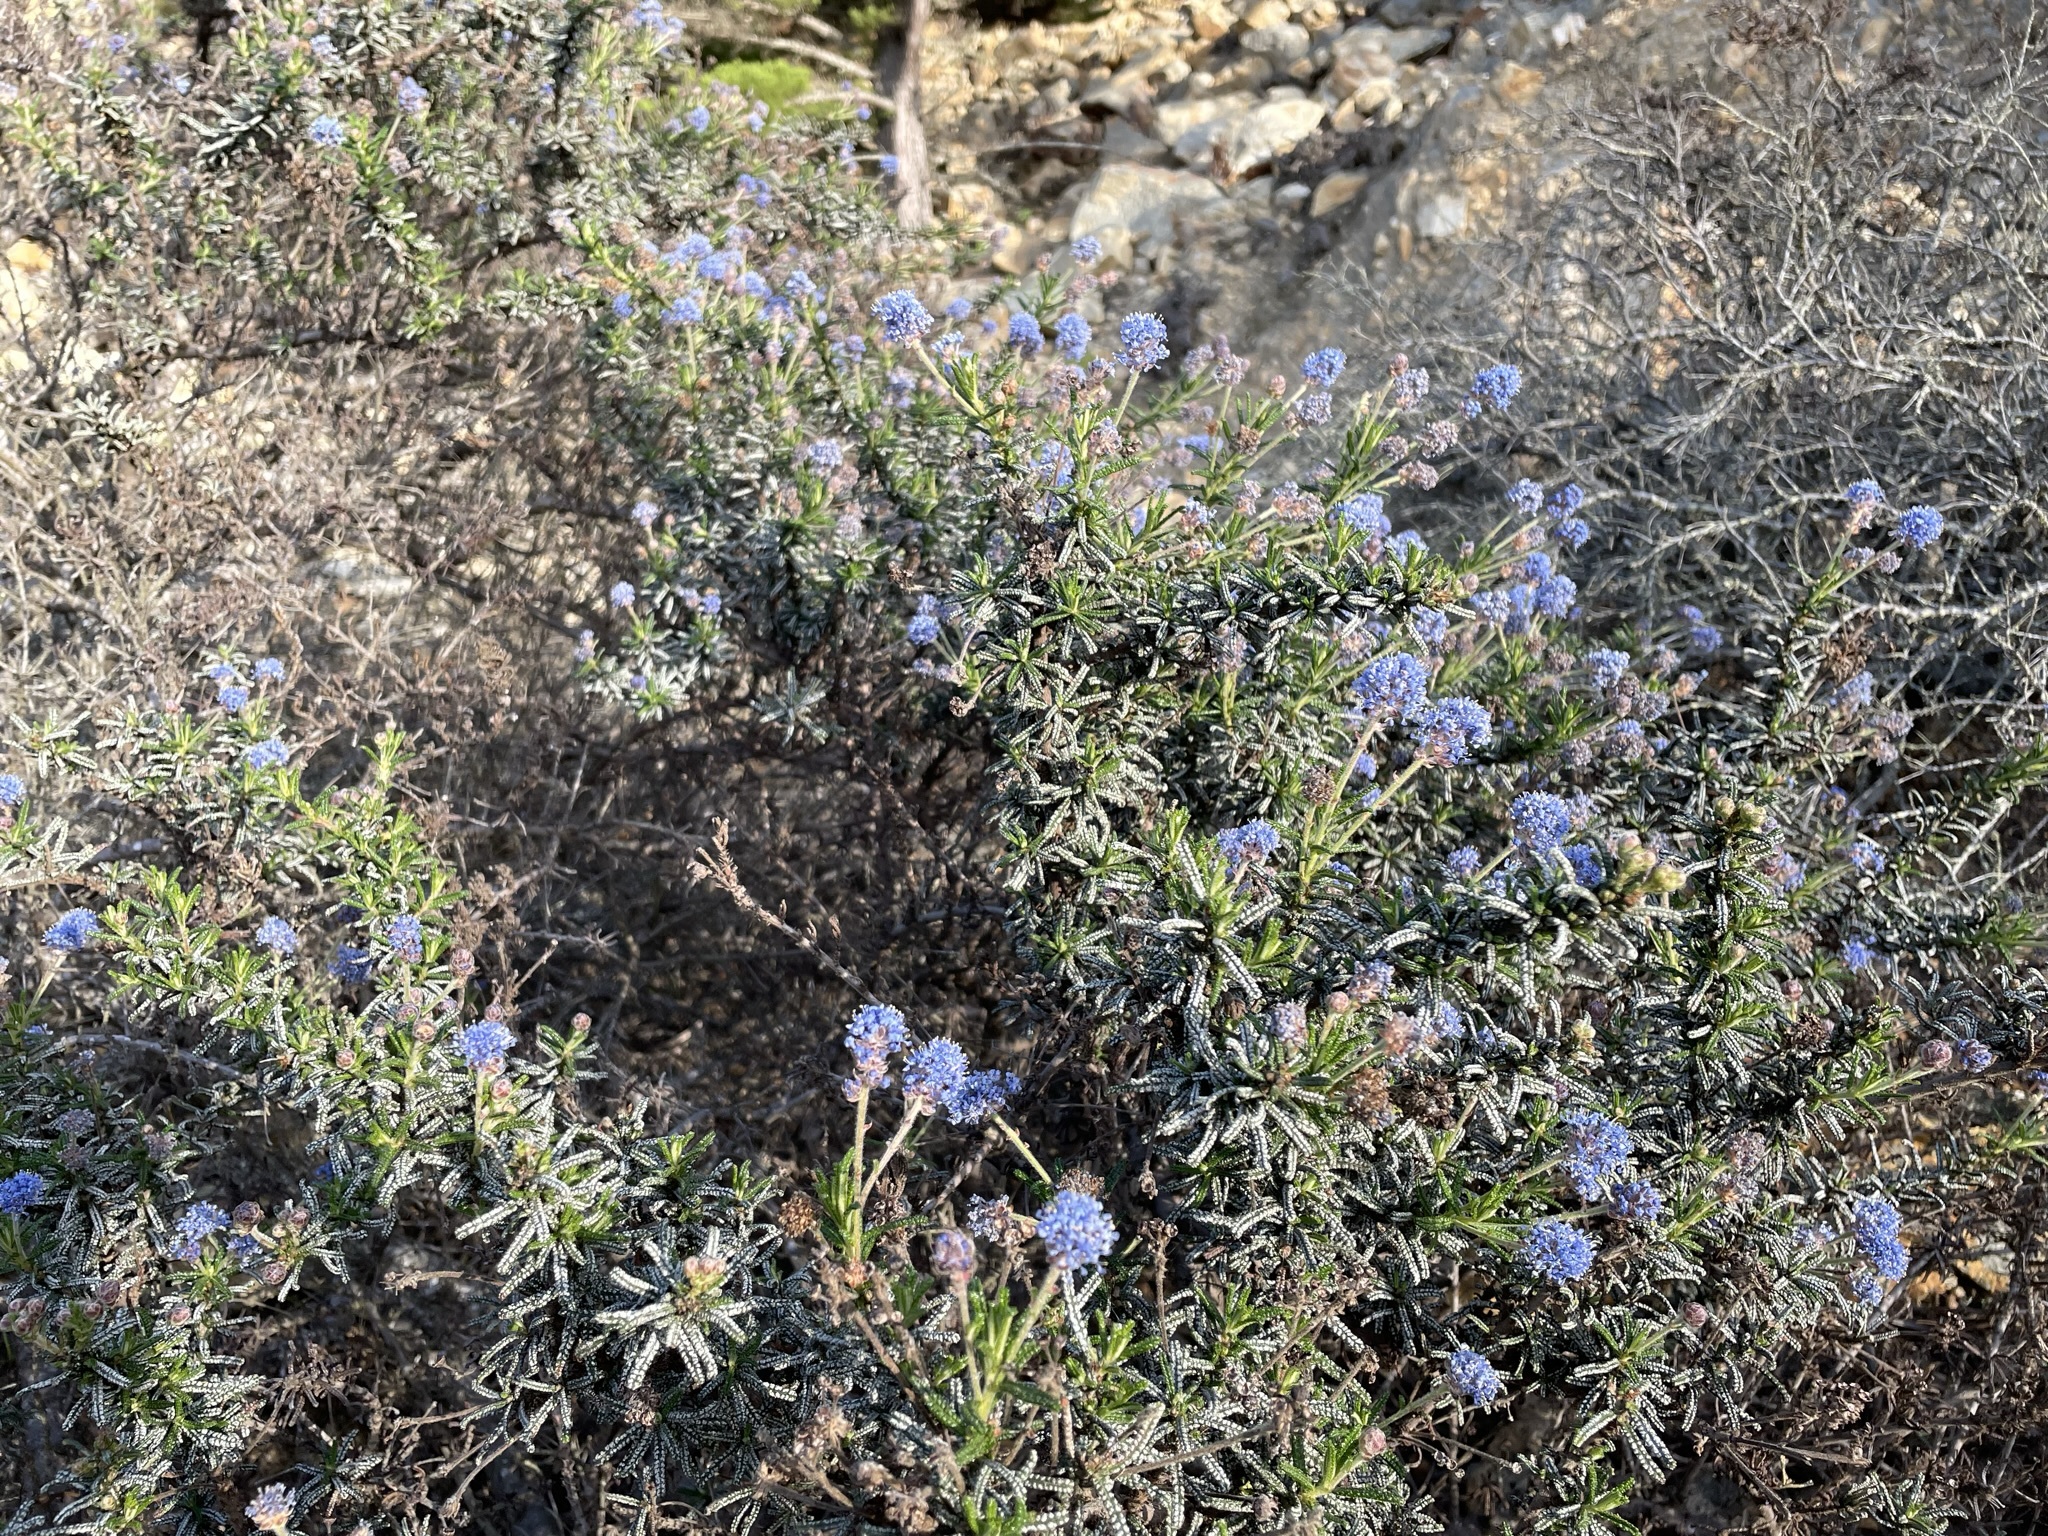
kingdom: Plantae
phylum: Tracheophyta
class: Magnoliopsida
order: Rosales
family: Rhamnaceae
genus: Ceanothus
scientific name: Ceanothus papillosus
